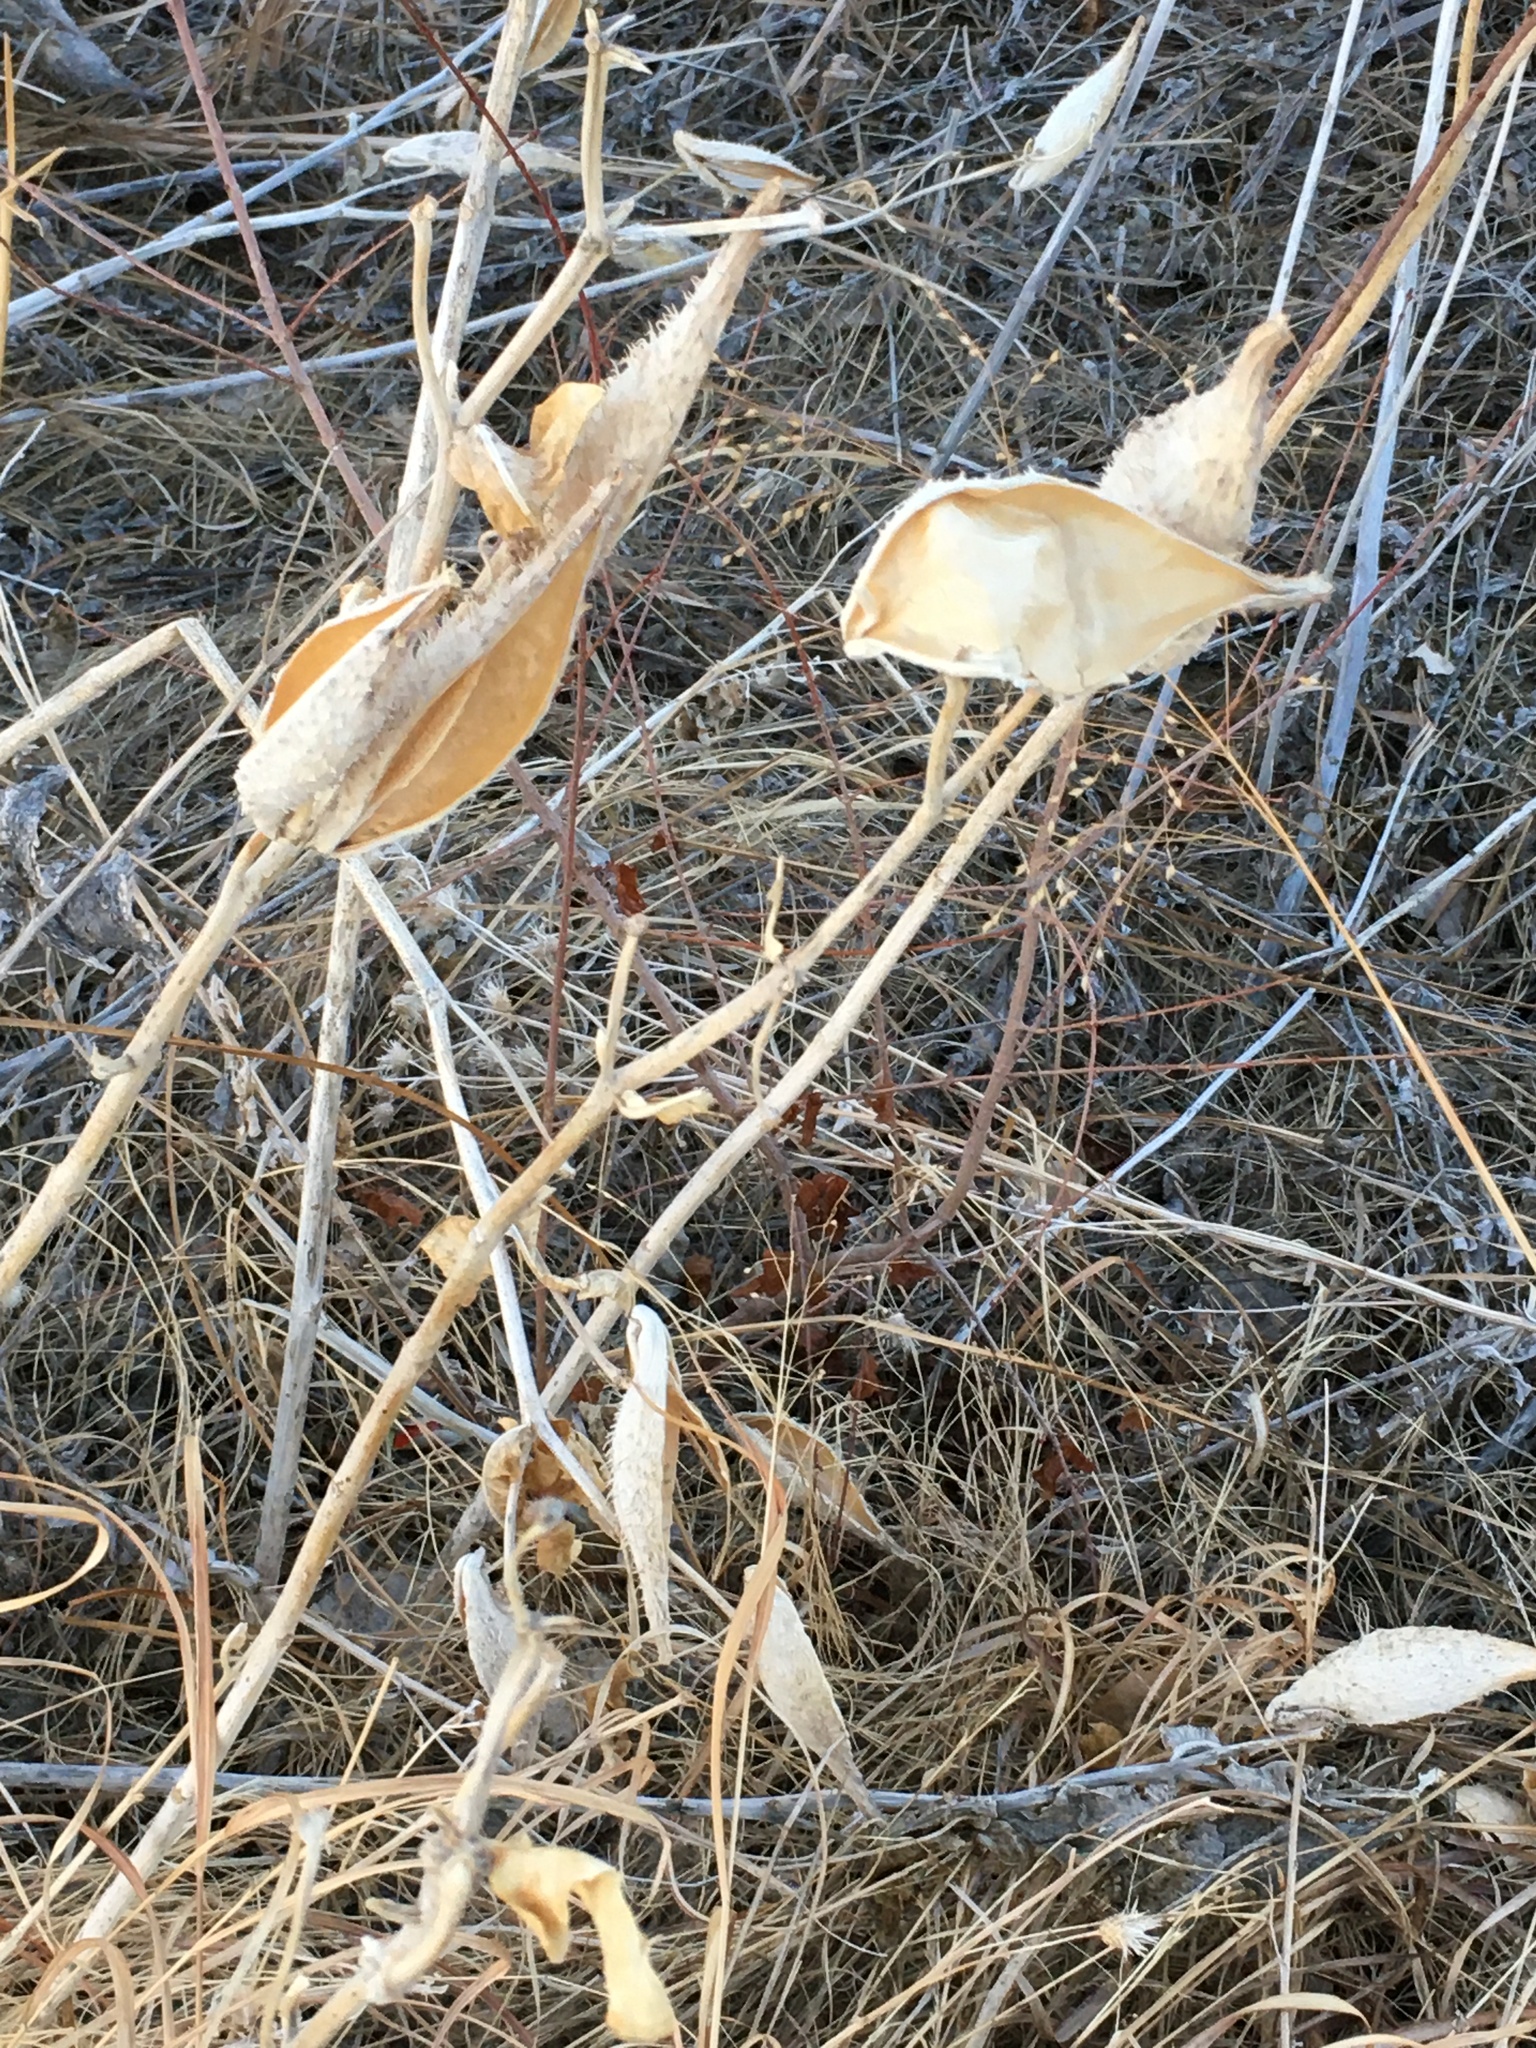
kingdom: Plantae
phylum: Tracheophyta
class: Magnoliopsida
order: Gentianales
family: Apocynaceae
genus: Asclepias
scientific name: Asclepias speciosa
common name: Showy milkweed
